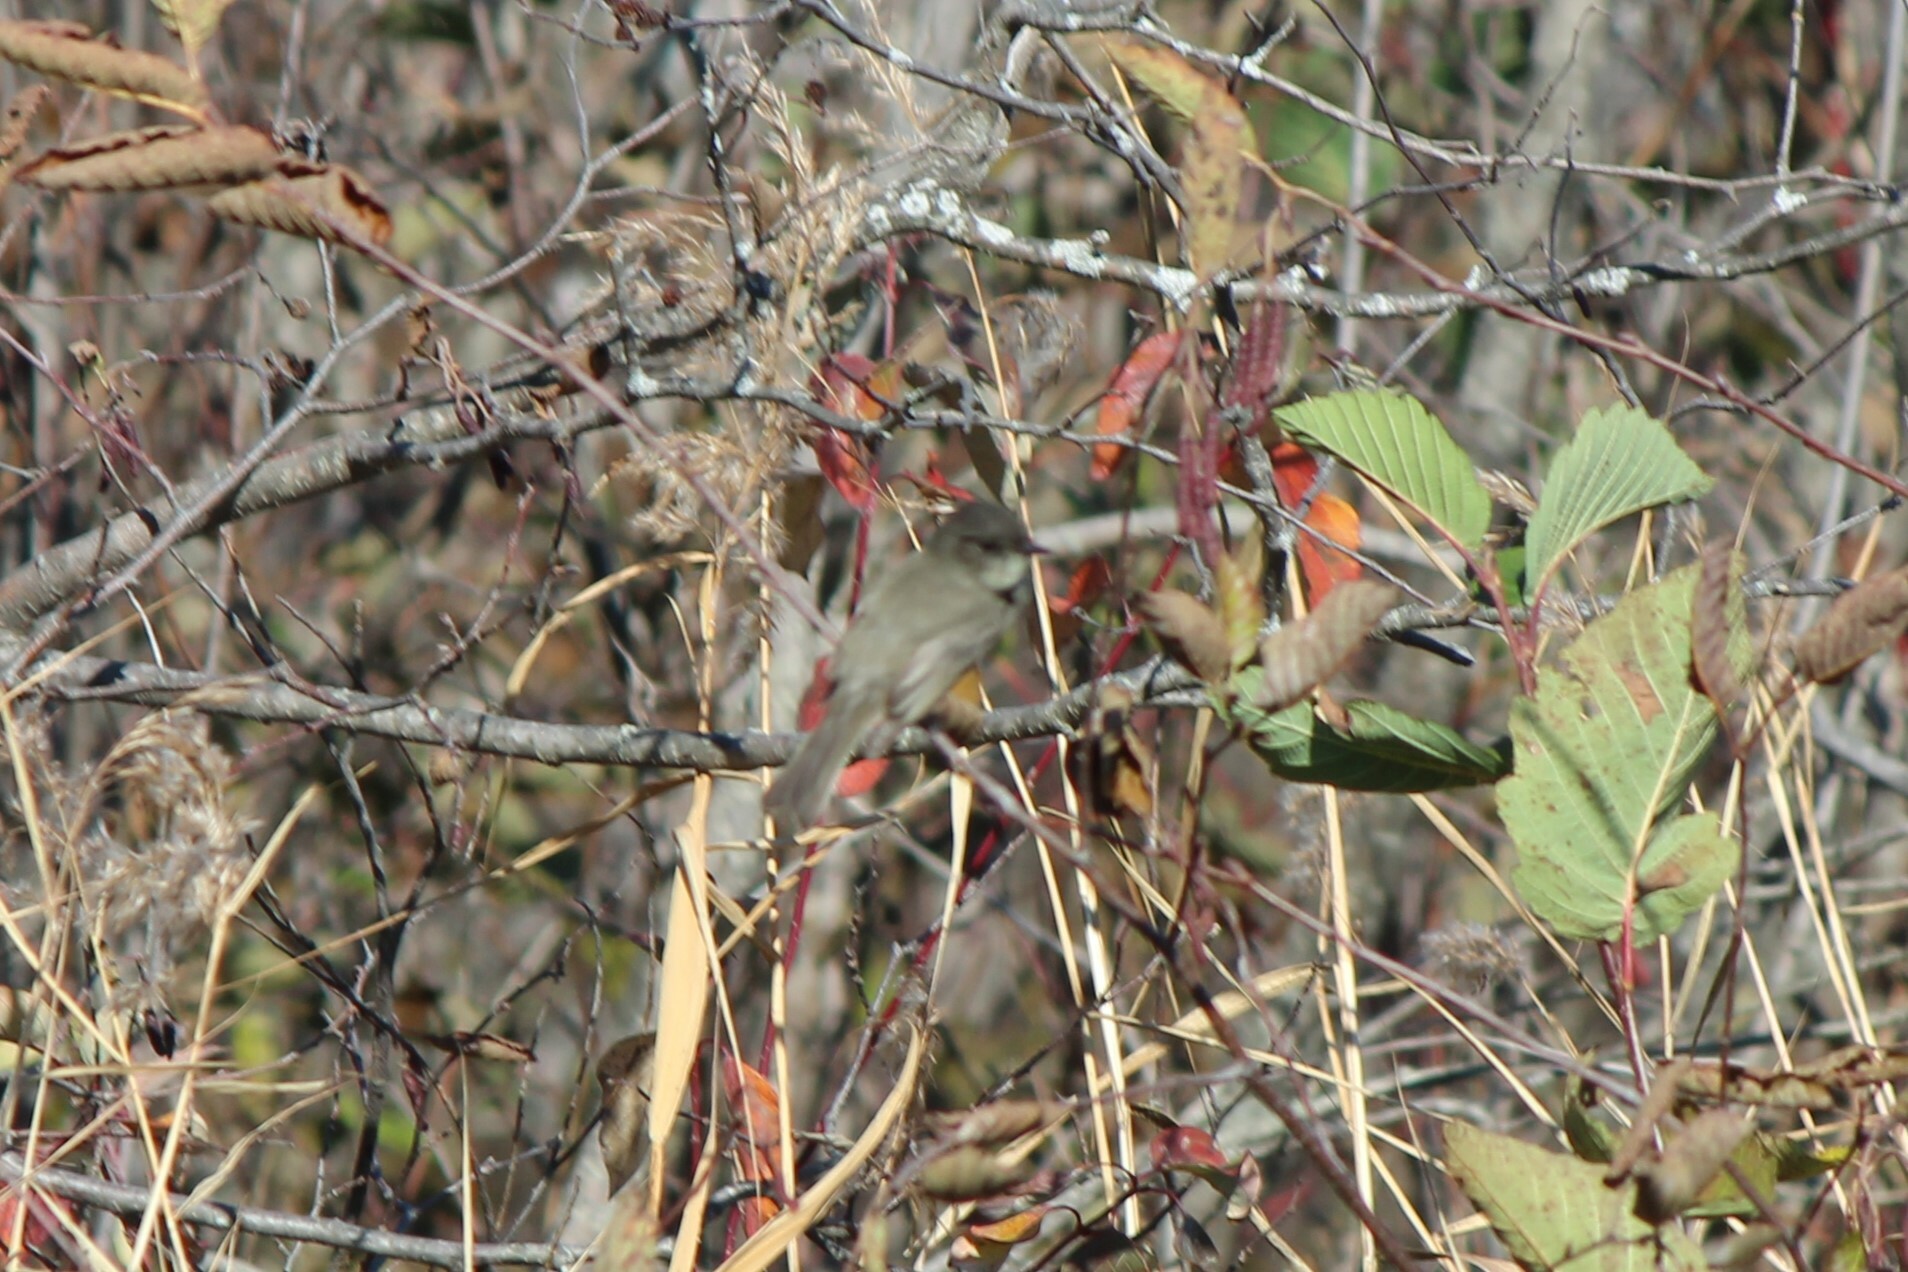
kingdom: Animalia
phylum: Chordata
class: Aves
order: Passeriformes
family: Tyrannidae
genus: Sayornis
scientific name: Sayornis phoebe
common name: Eastern phoebe
